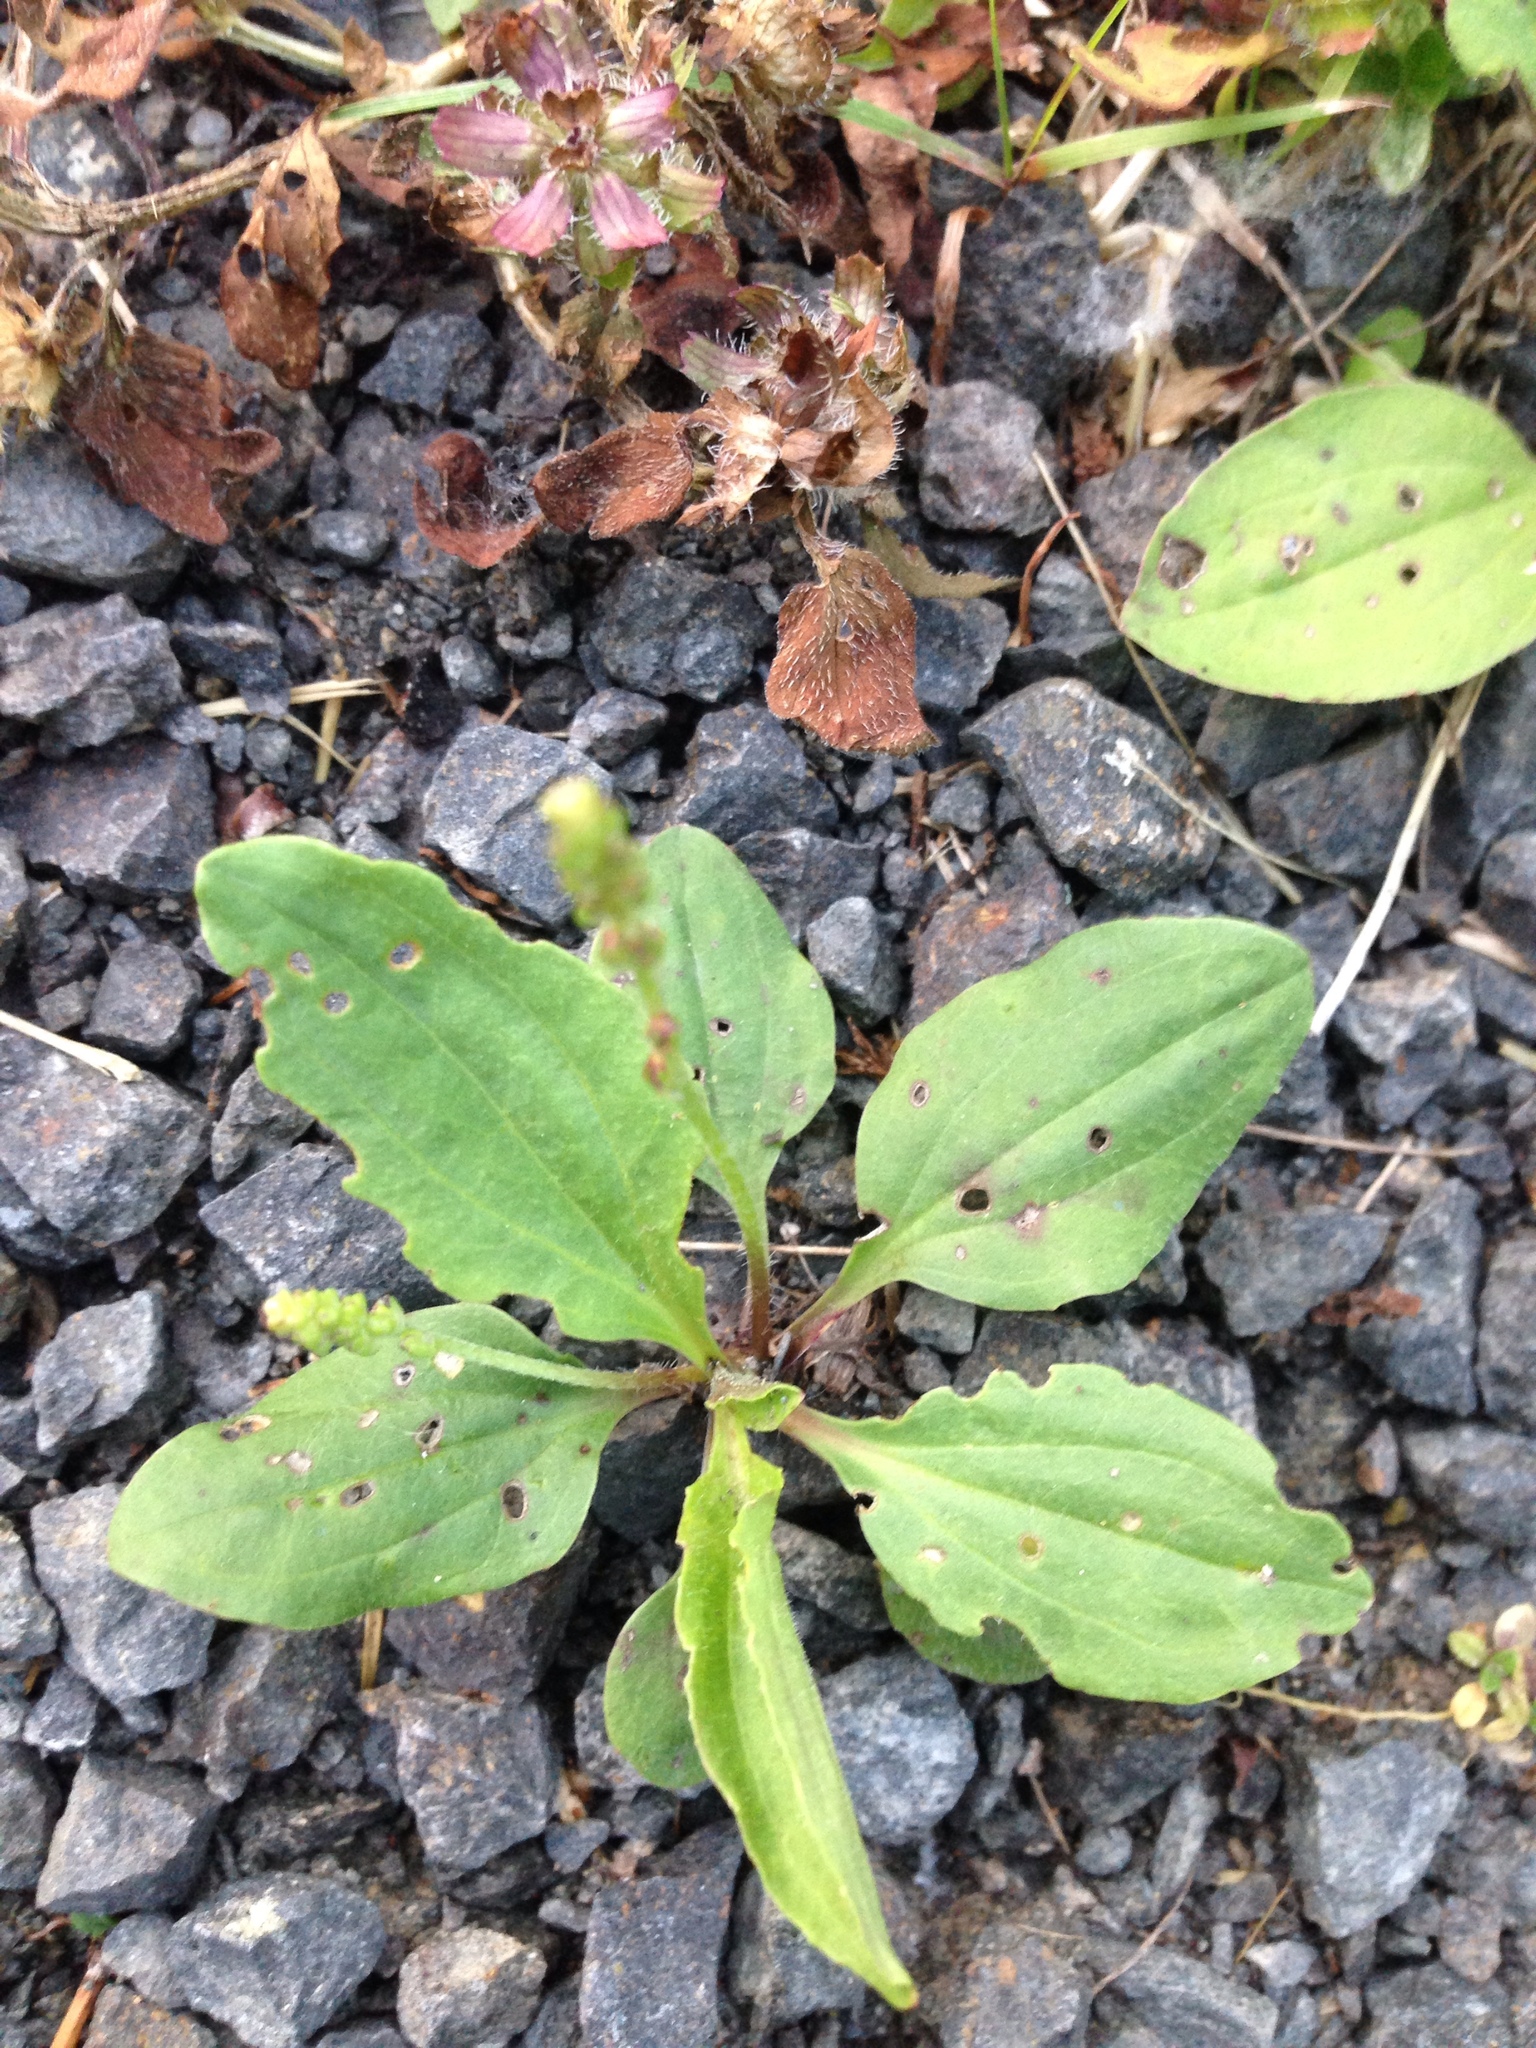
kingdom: Plantae
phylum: Tracheophyta
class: Magnoliopsida
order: Lamiales
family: Plantaginaceae
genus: Plantago
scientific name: Plantago major
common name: Common plantain
